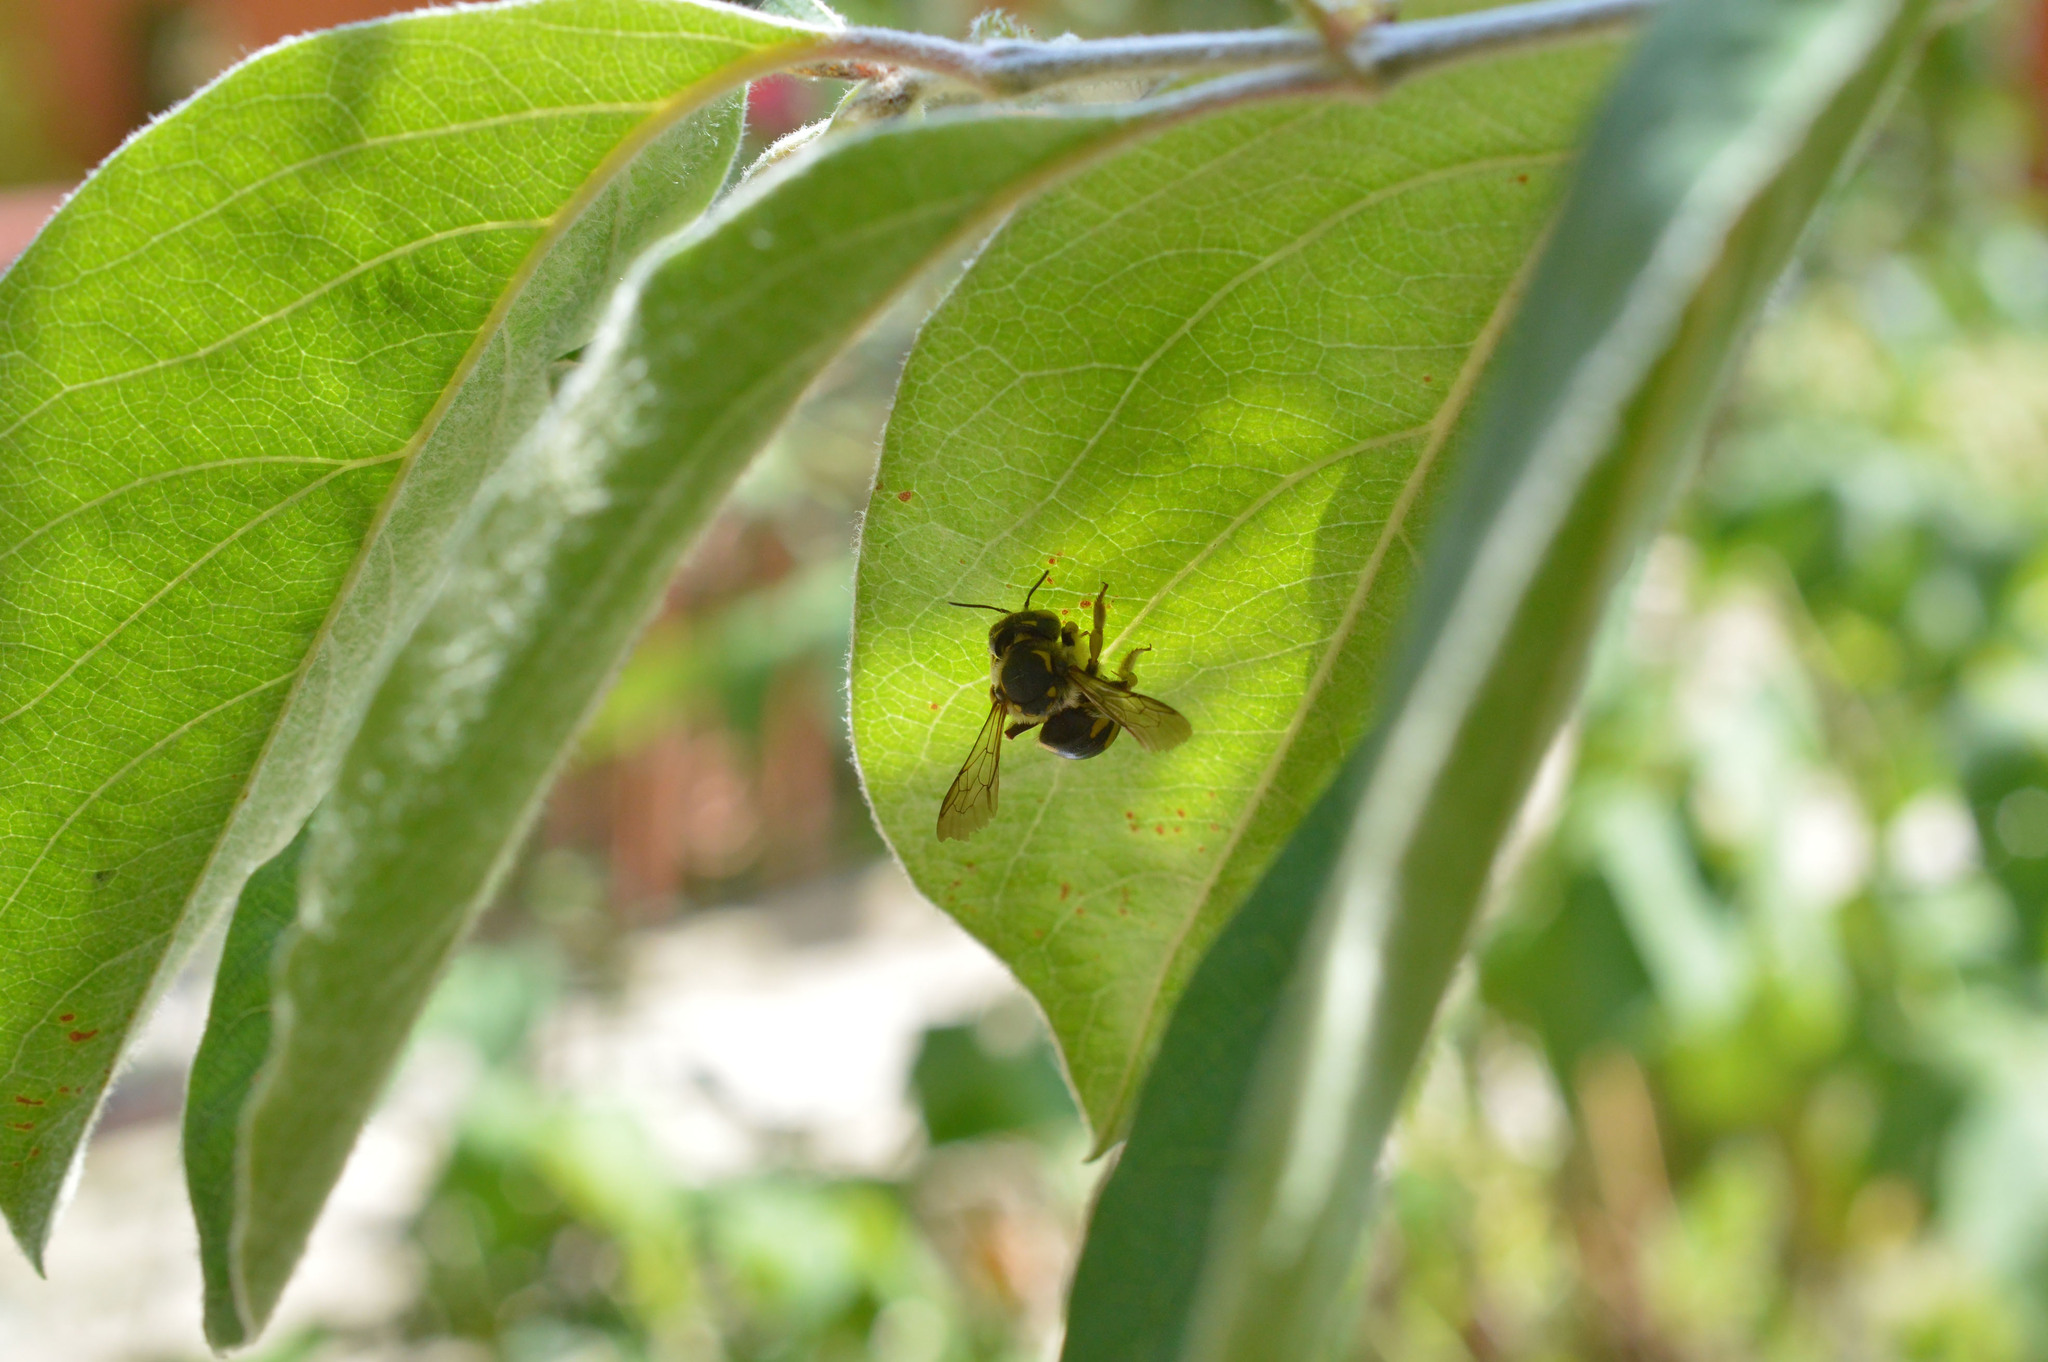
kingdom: Animalia
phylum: Arthropoda
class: Insecta
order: Hymenoptera
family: Megachilidae
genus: Anthidium
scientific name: Anthidium florentinum
